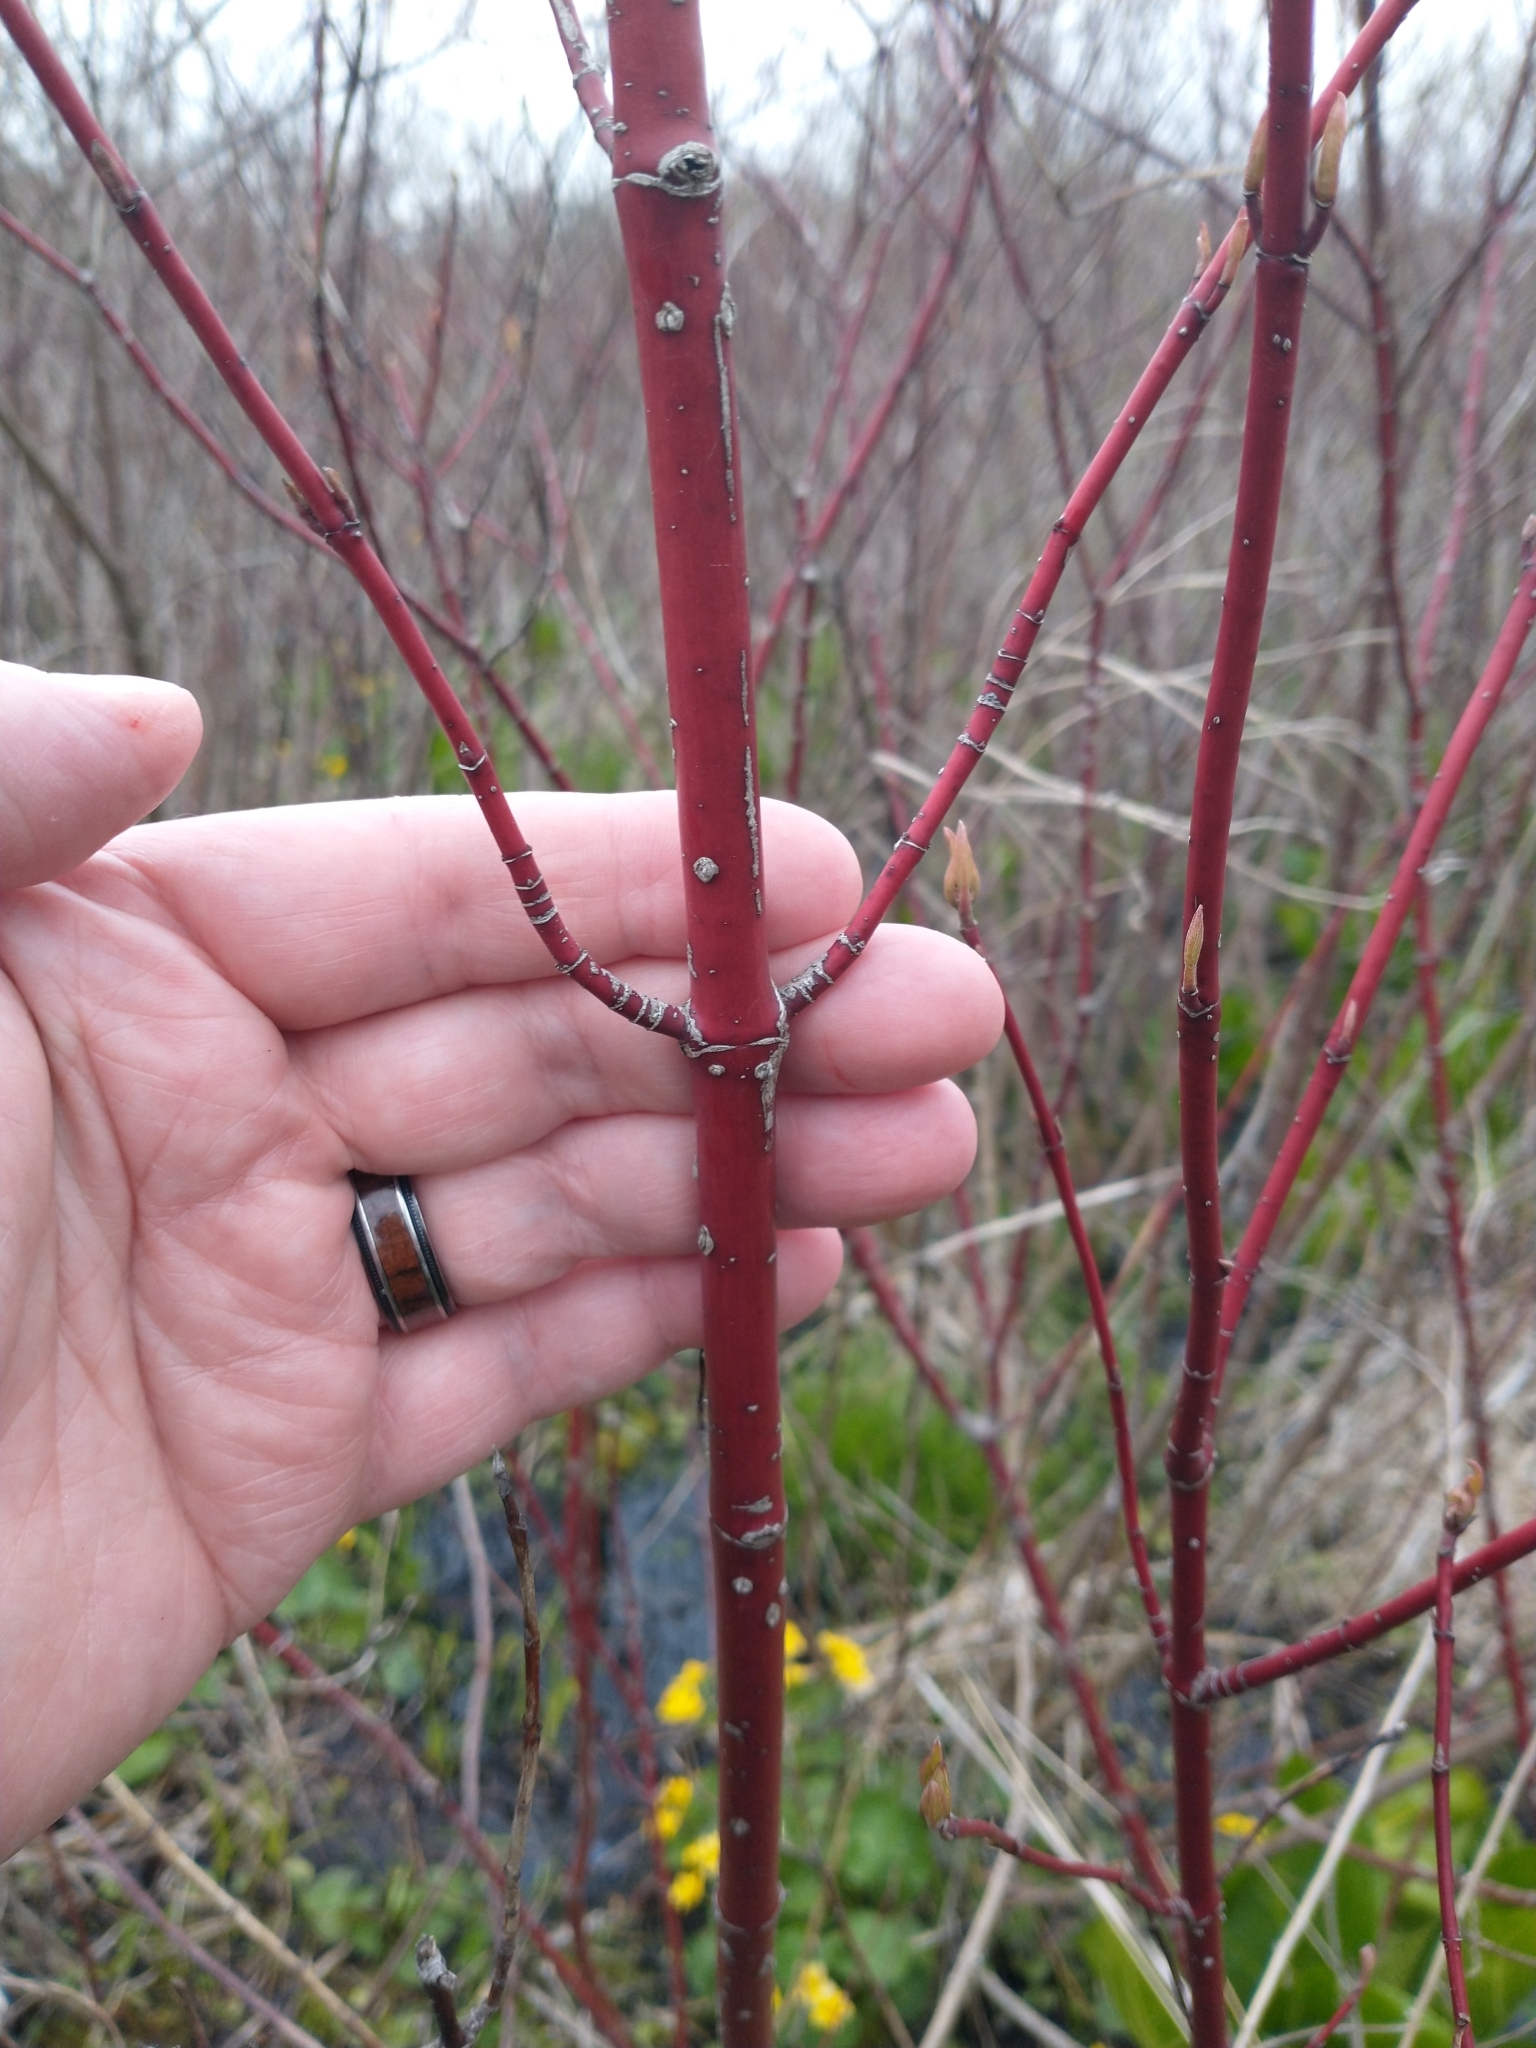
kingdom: Plantae
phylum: Tracheophyta
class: Magnoliopsida
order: Cornales
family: Cornaceae
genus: Cornus
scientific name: Cornus sericea
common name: Red-osier dogwood
